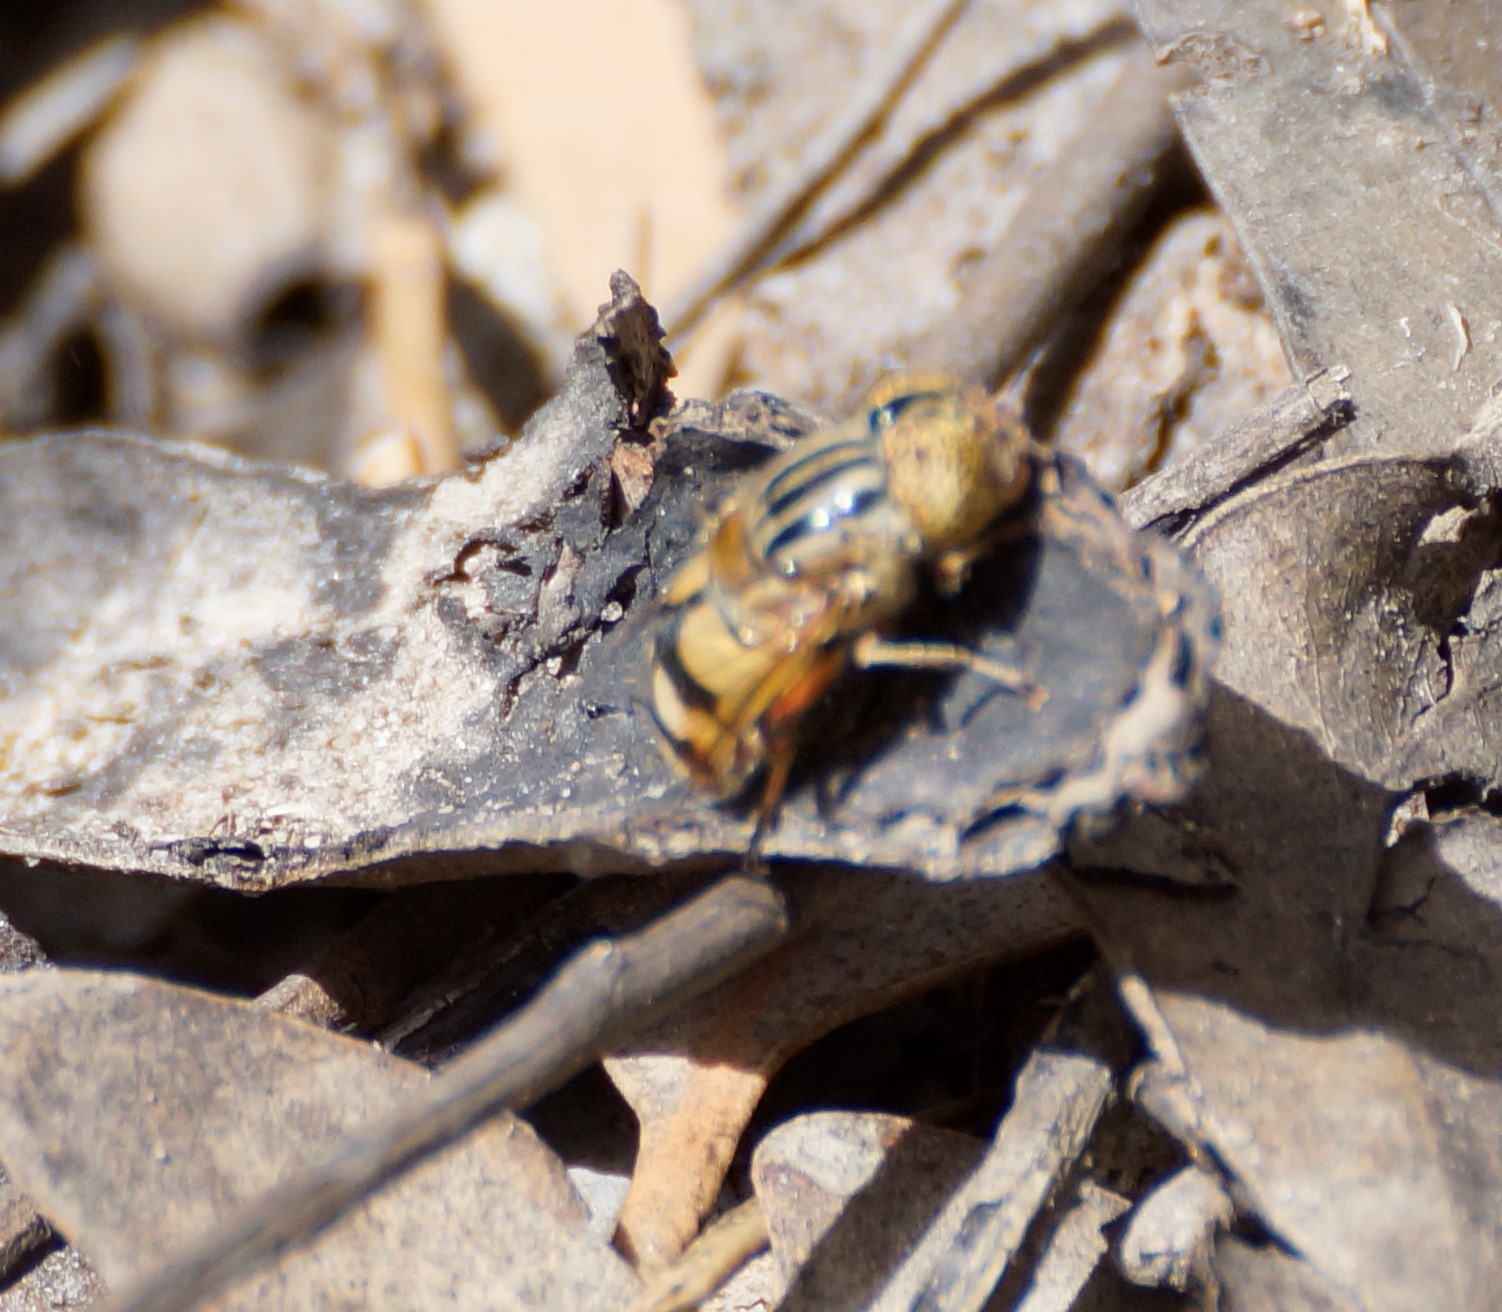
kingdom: Animalia
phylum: Arthropoda
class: Insecta
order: Diptera
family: Syrphidae
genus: Eristalinus
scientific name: Eristalinus punctulatus
